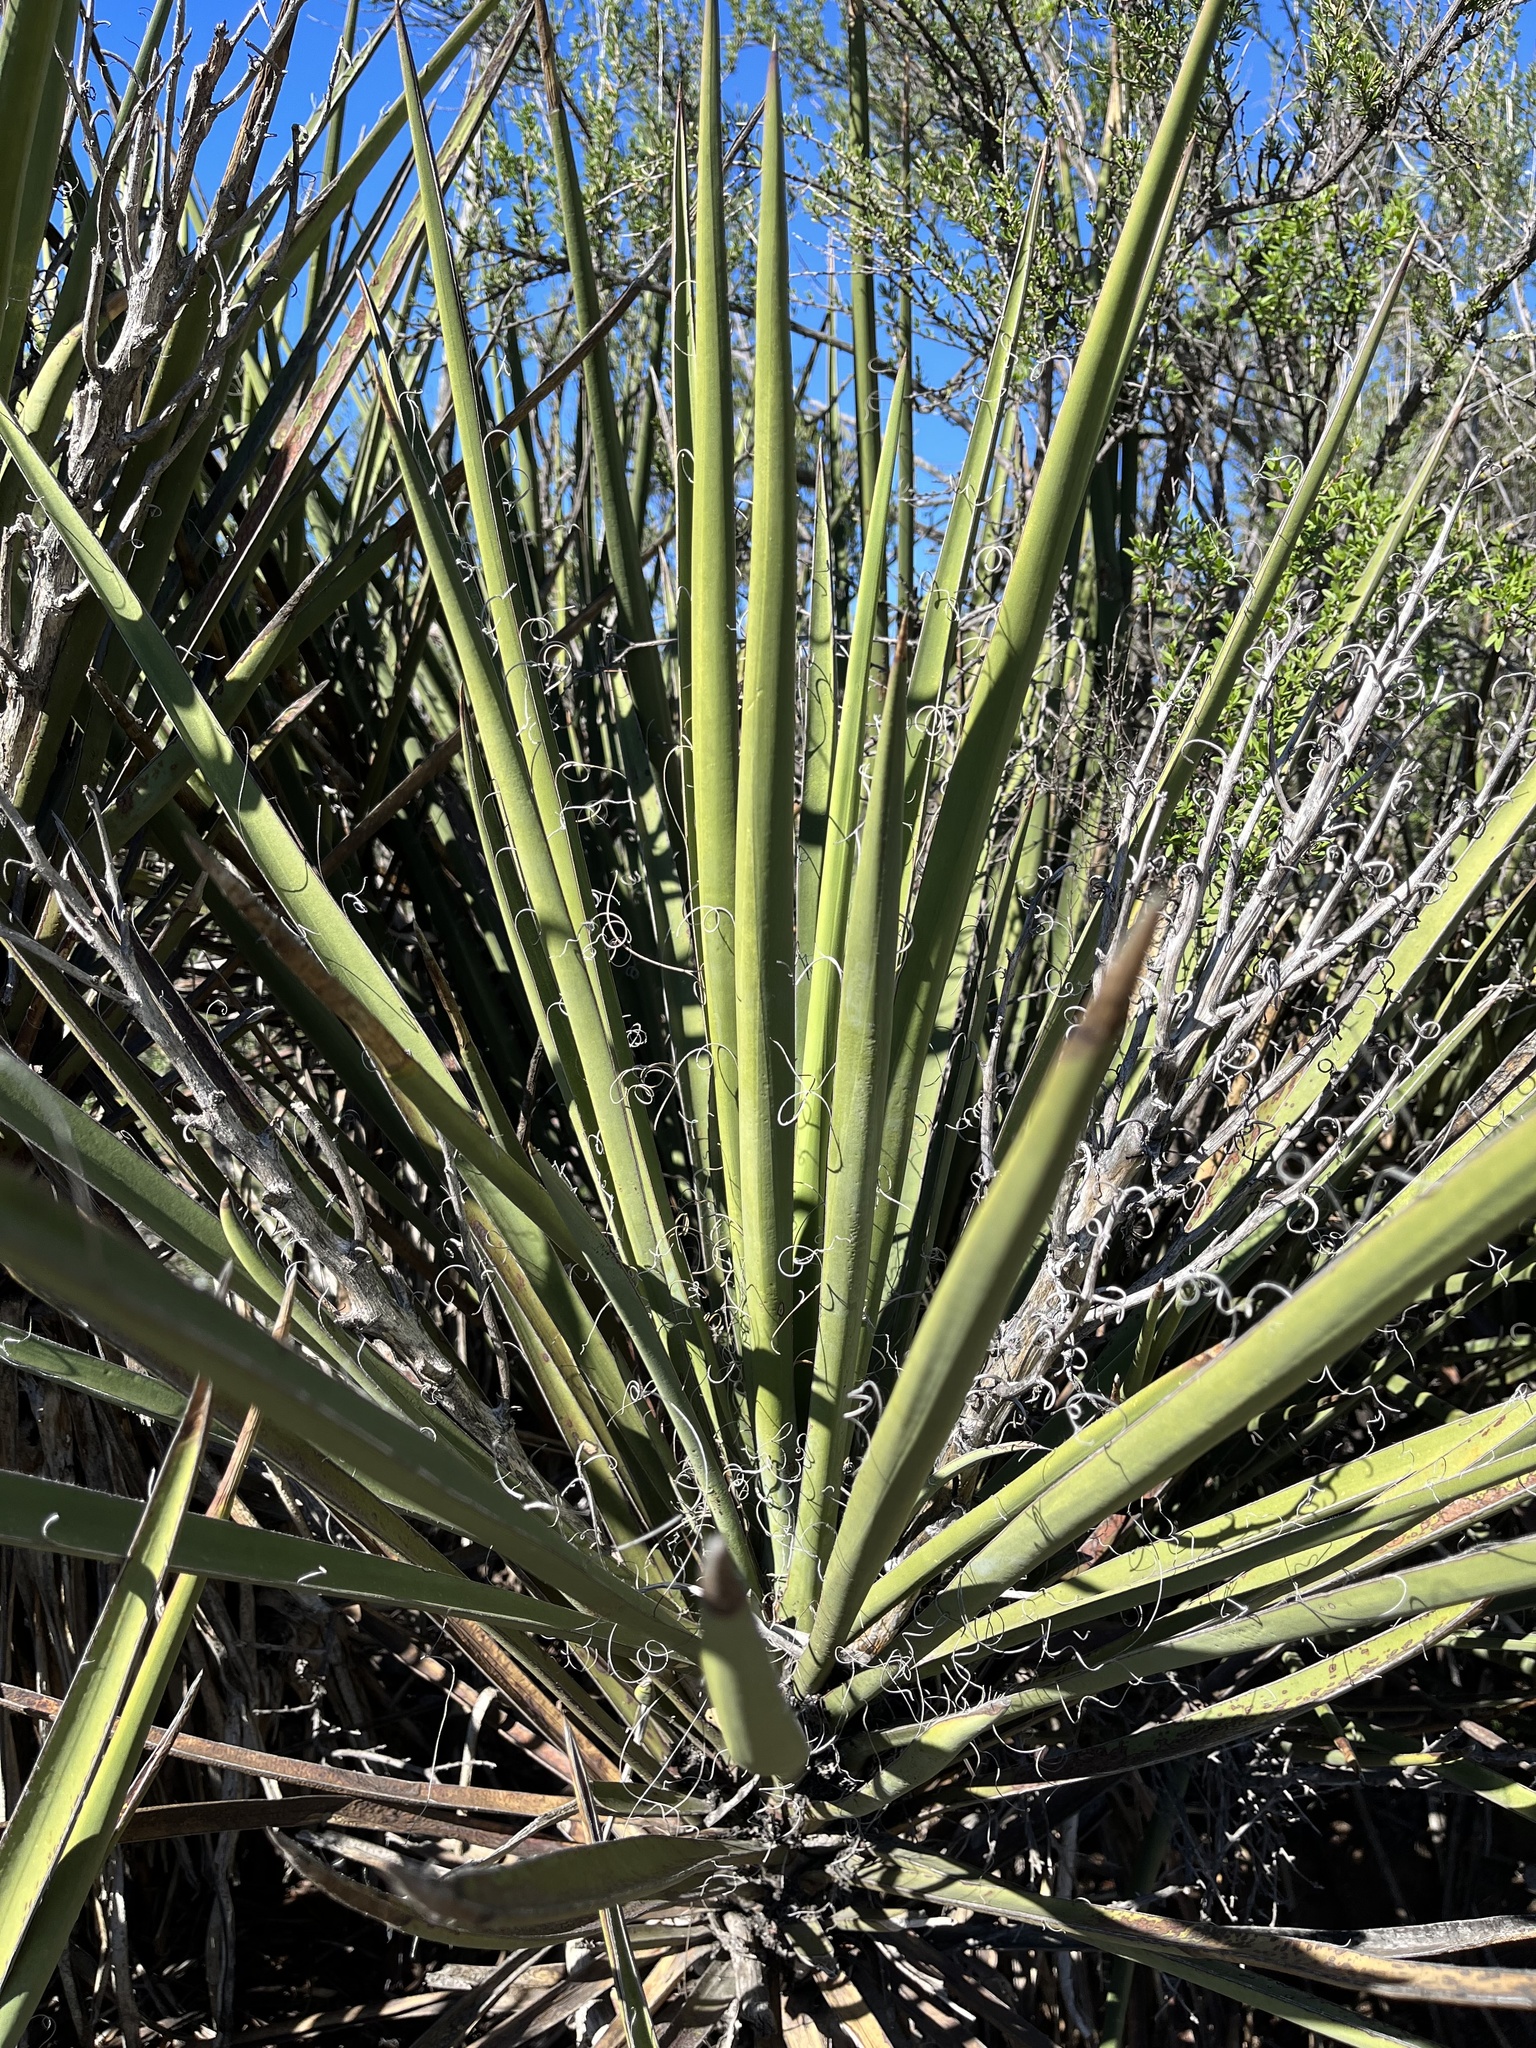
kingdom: Plantae
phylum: Tracheophyta
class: Liliopsida
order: Asparagales
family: Asparagaceae
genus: Yucca
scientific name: Yucca schidigera
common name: Mojave yucca
